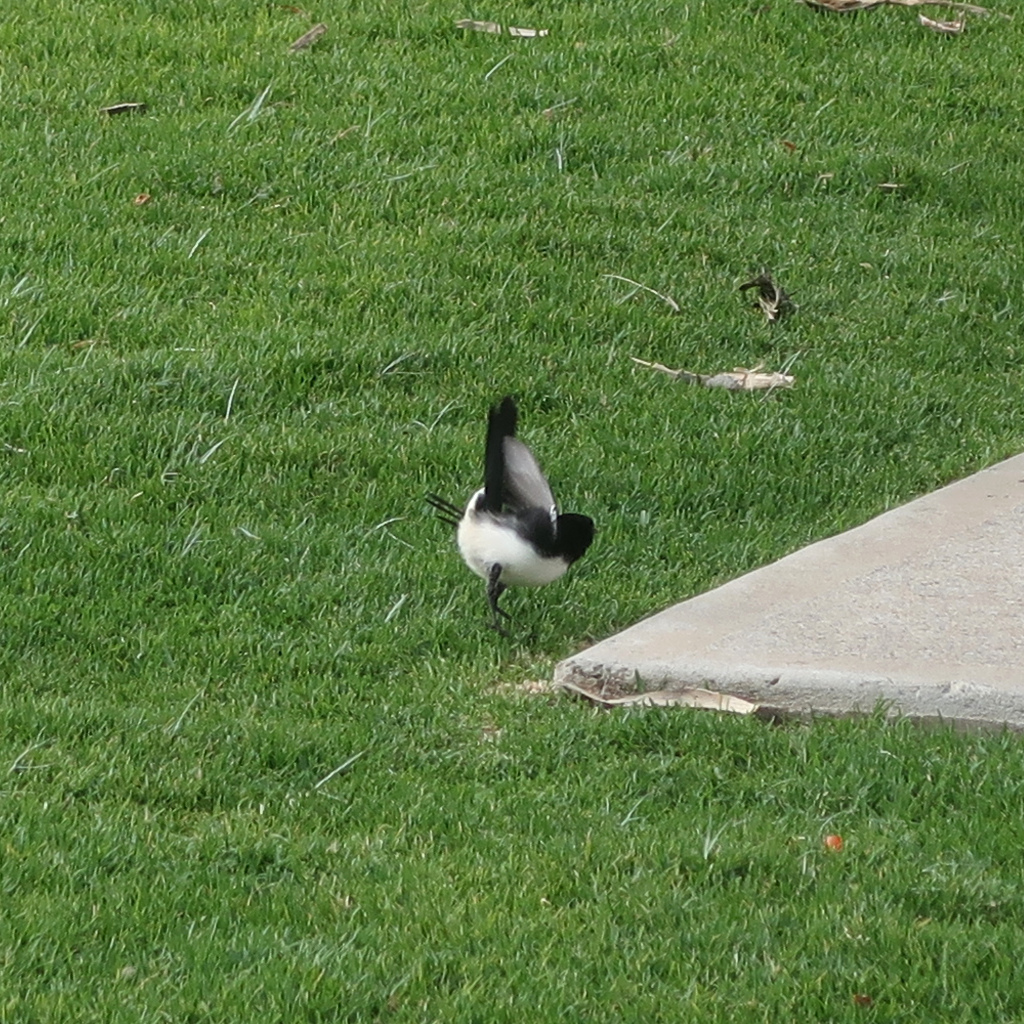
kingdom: Animalia
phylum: Chordata
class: Aves
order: Passeriformes
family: Rhipiduridae
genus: Rhipidura
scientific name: Rhipidura leucophrys
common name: Willie wagtail
